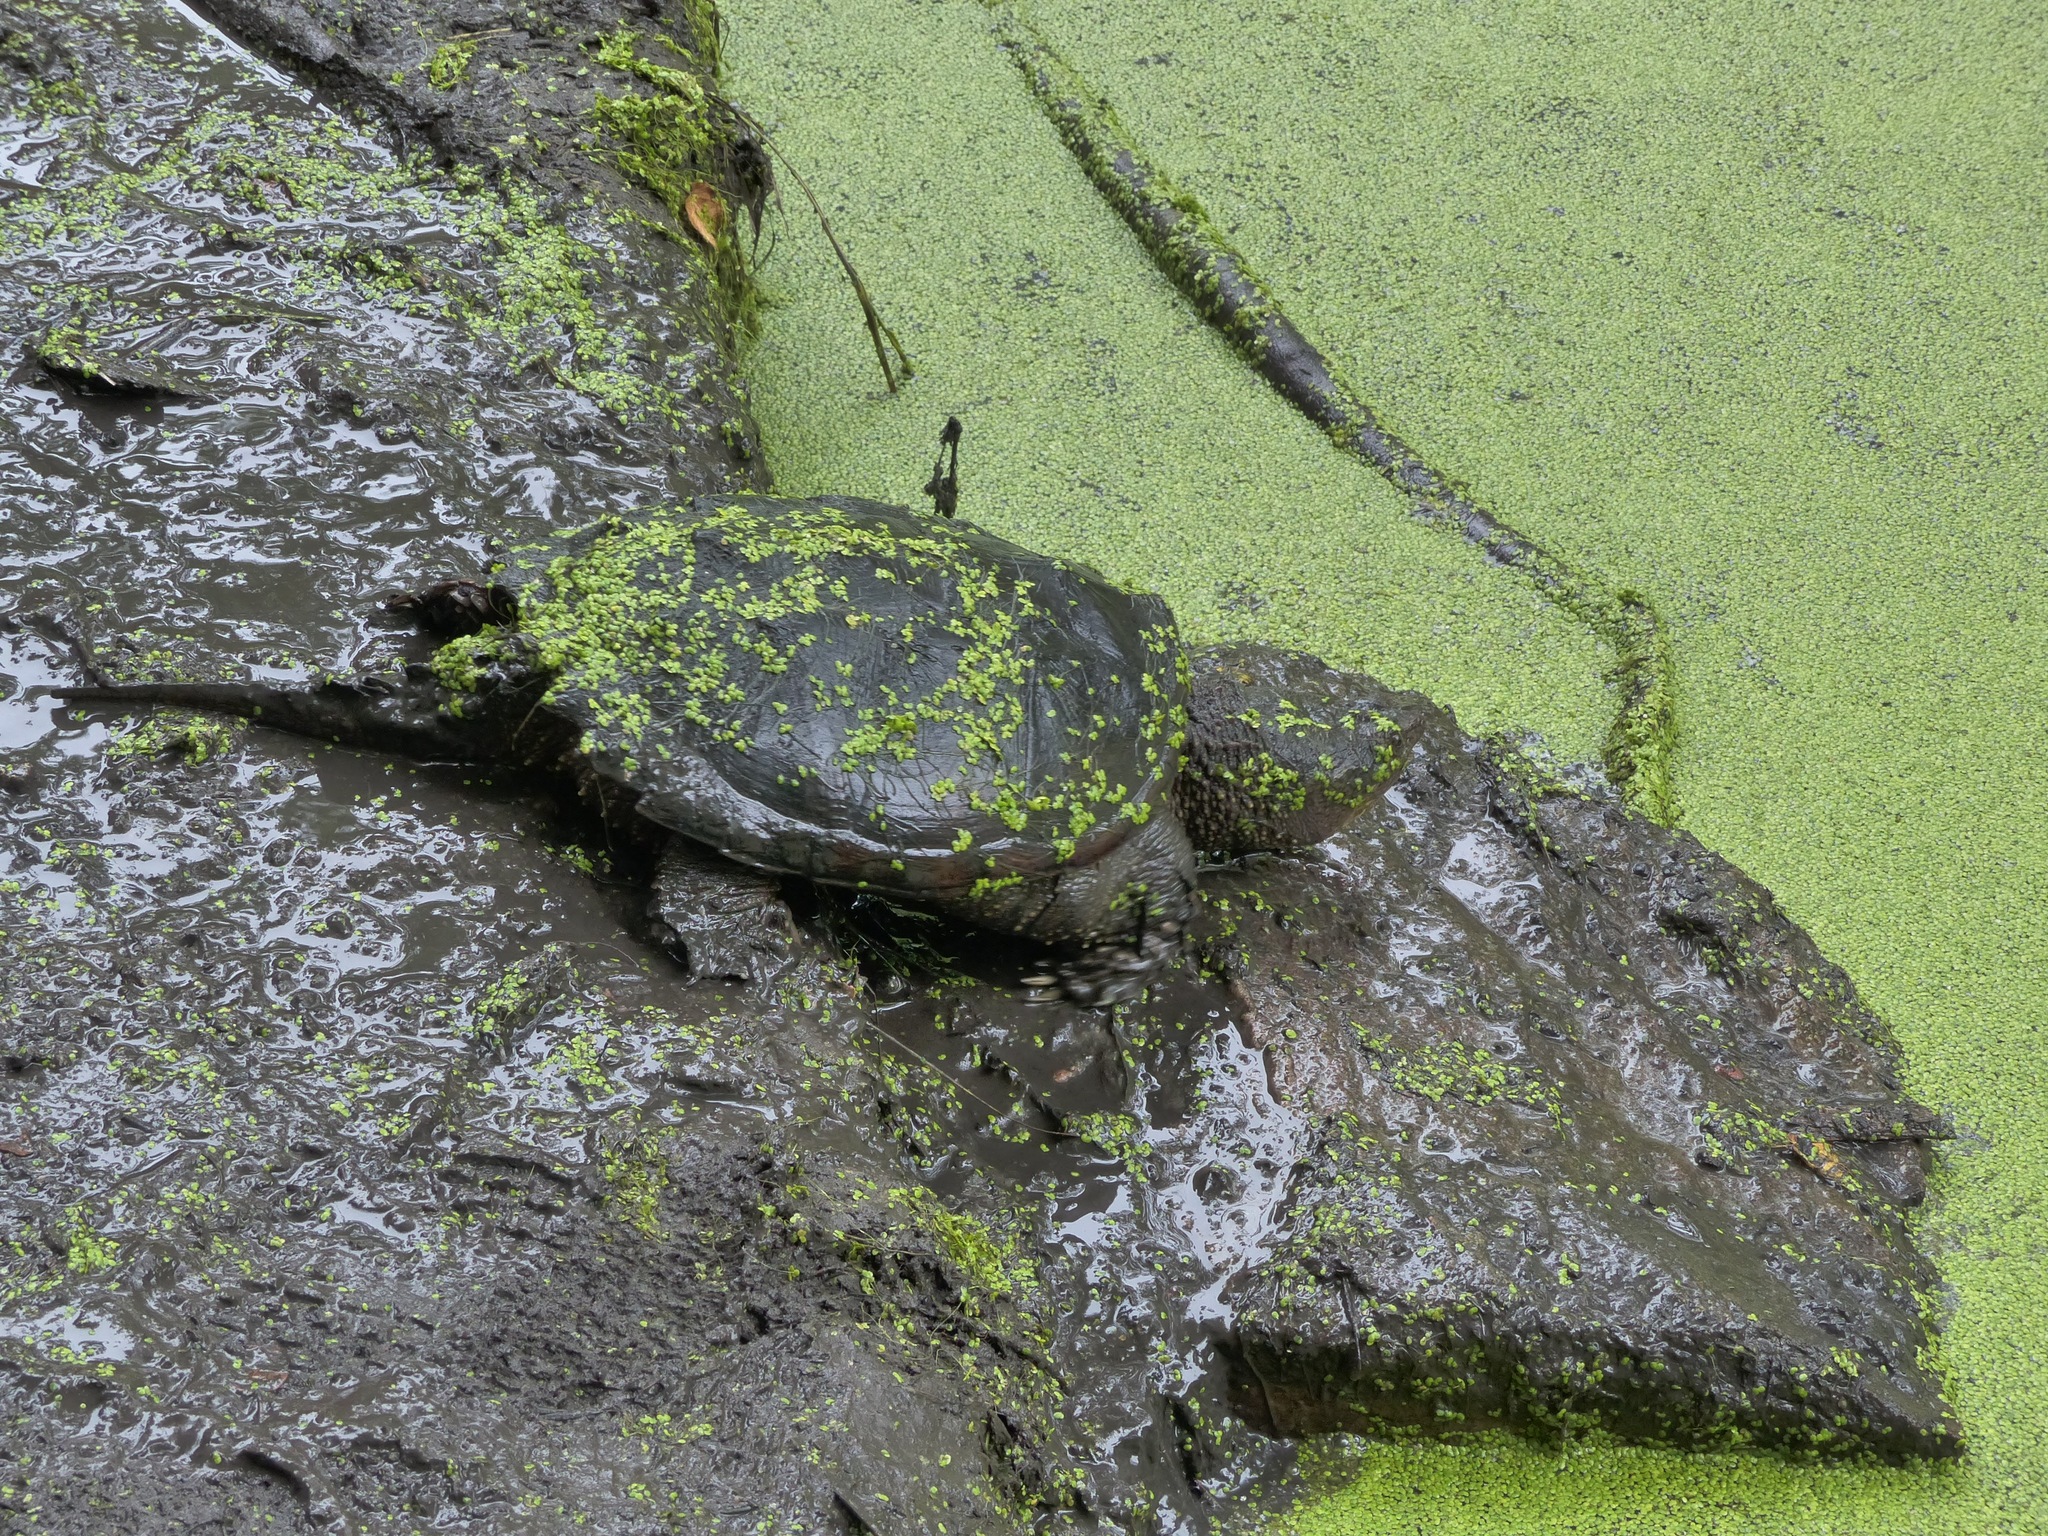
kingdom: Animalia
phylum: Chordata
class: Testudines
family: Chelydridae
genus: Chelydra
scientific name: Chelydra serpentina
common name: Common snapping turtle
